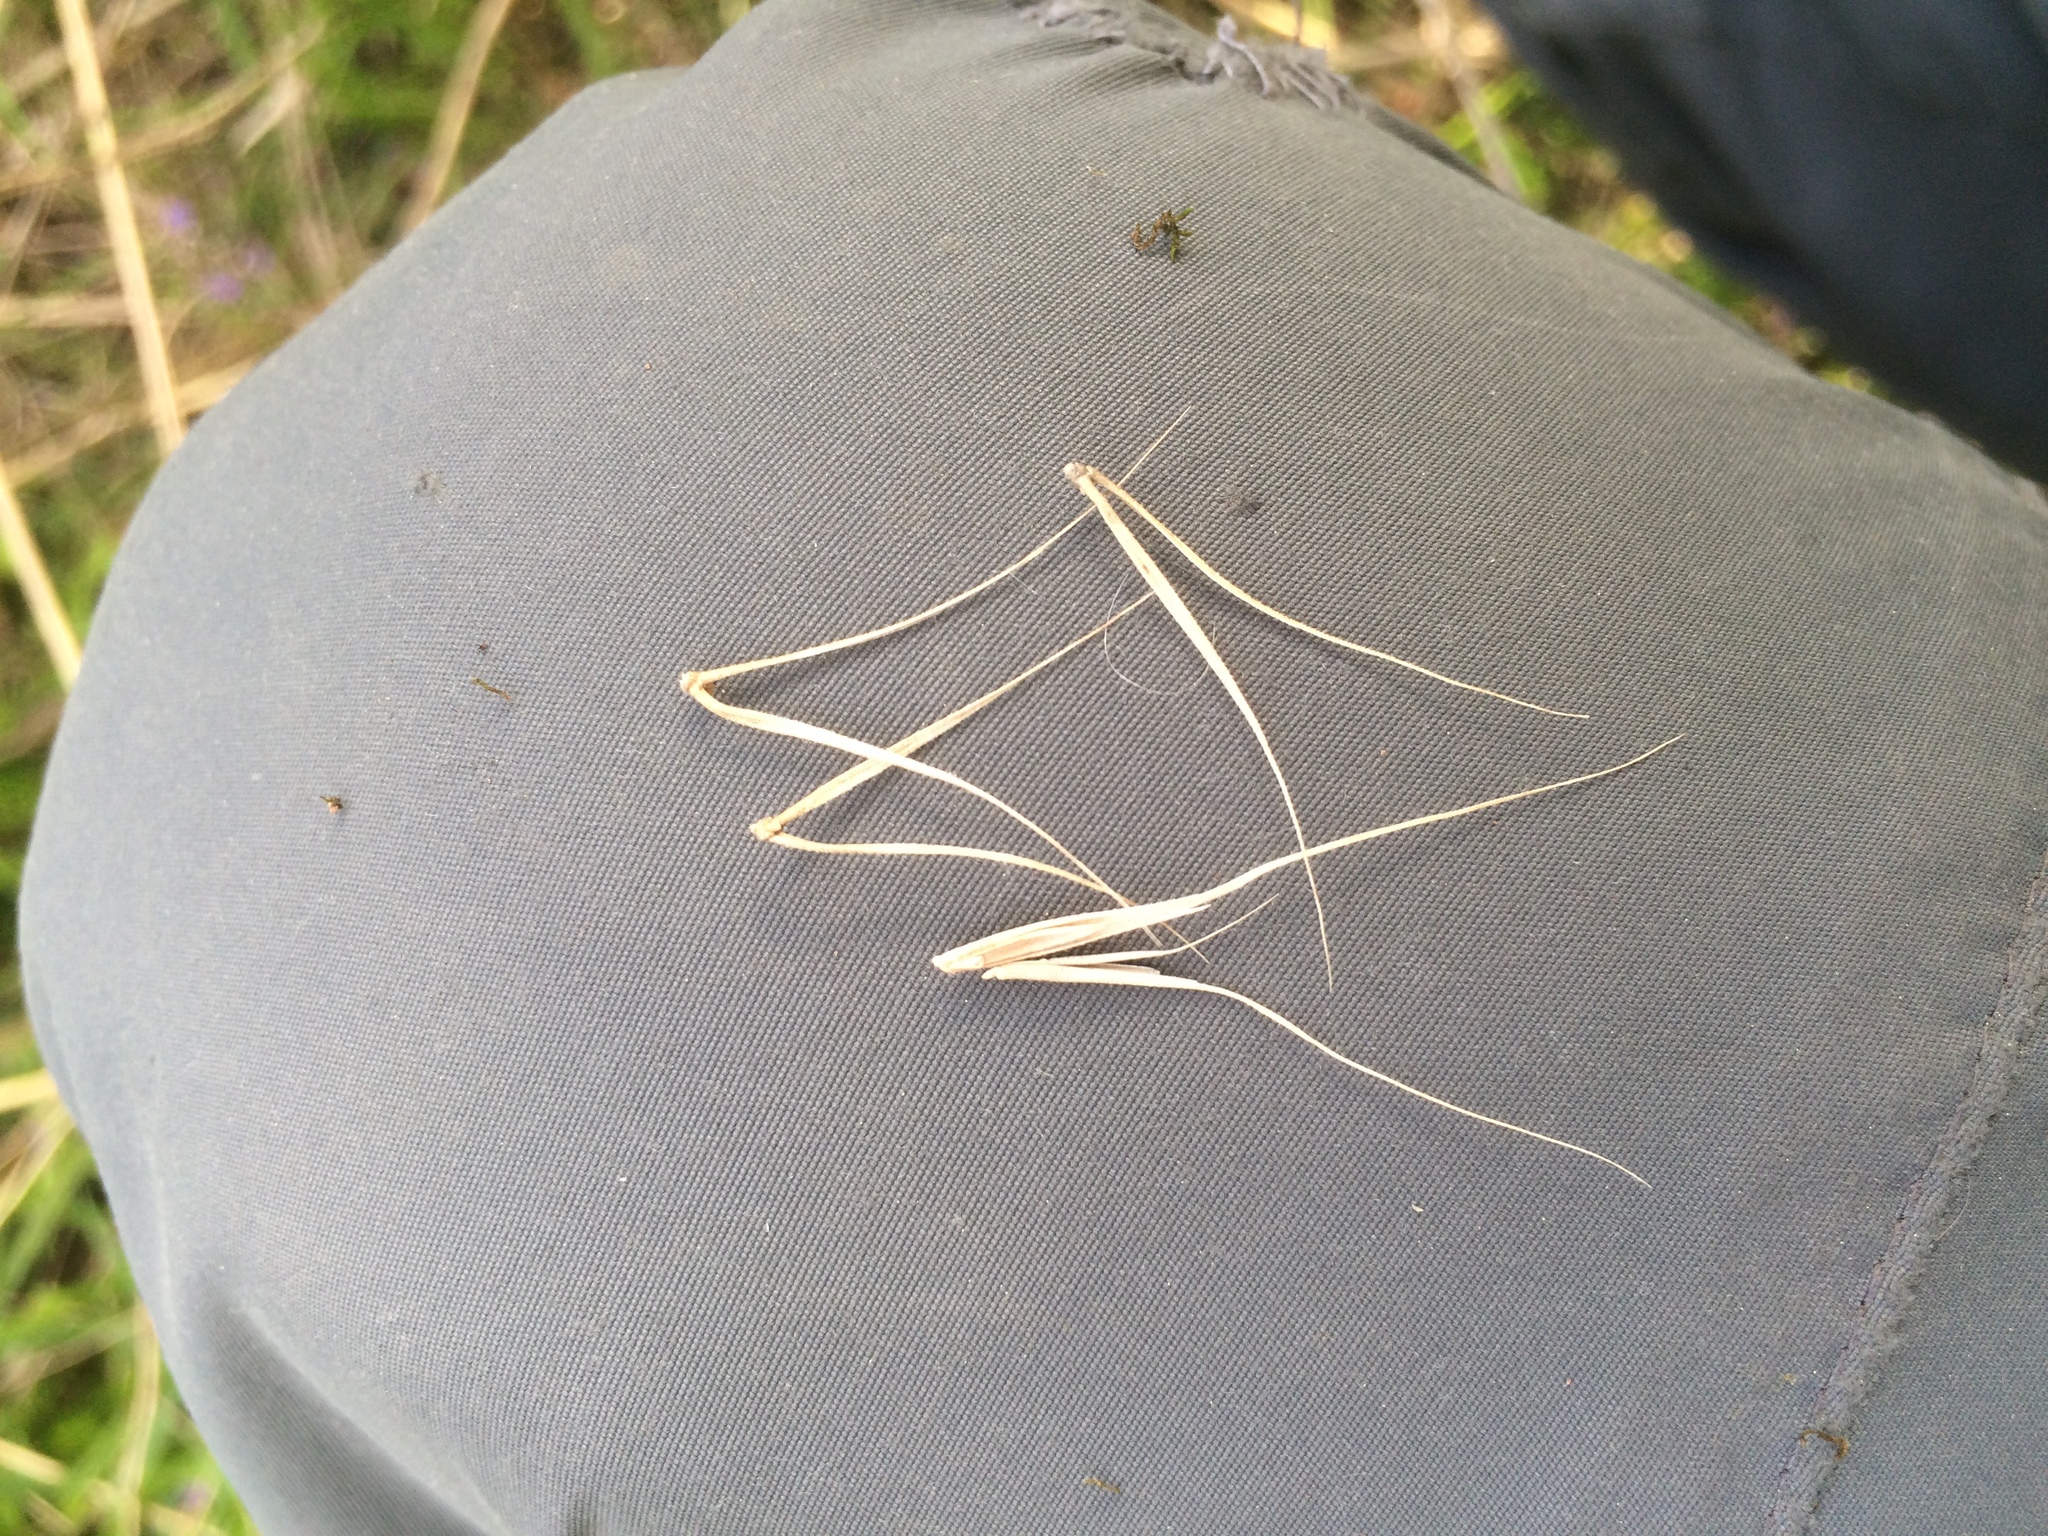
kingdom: Plantae
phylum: Tracheophyta
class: Liliopsida
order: Poales
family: Poaceae
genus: Elymus
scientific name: Elymus canadensis
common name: Canada wild rye
